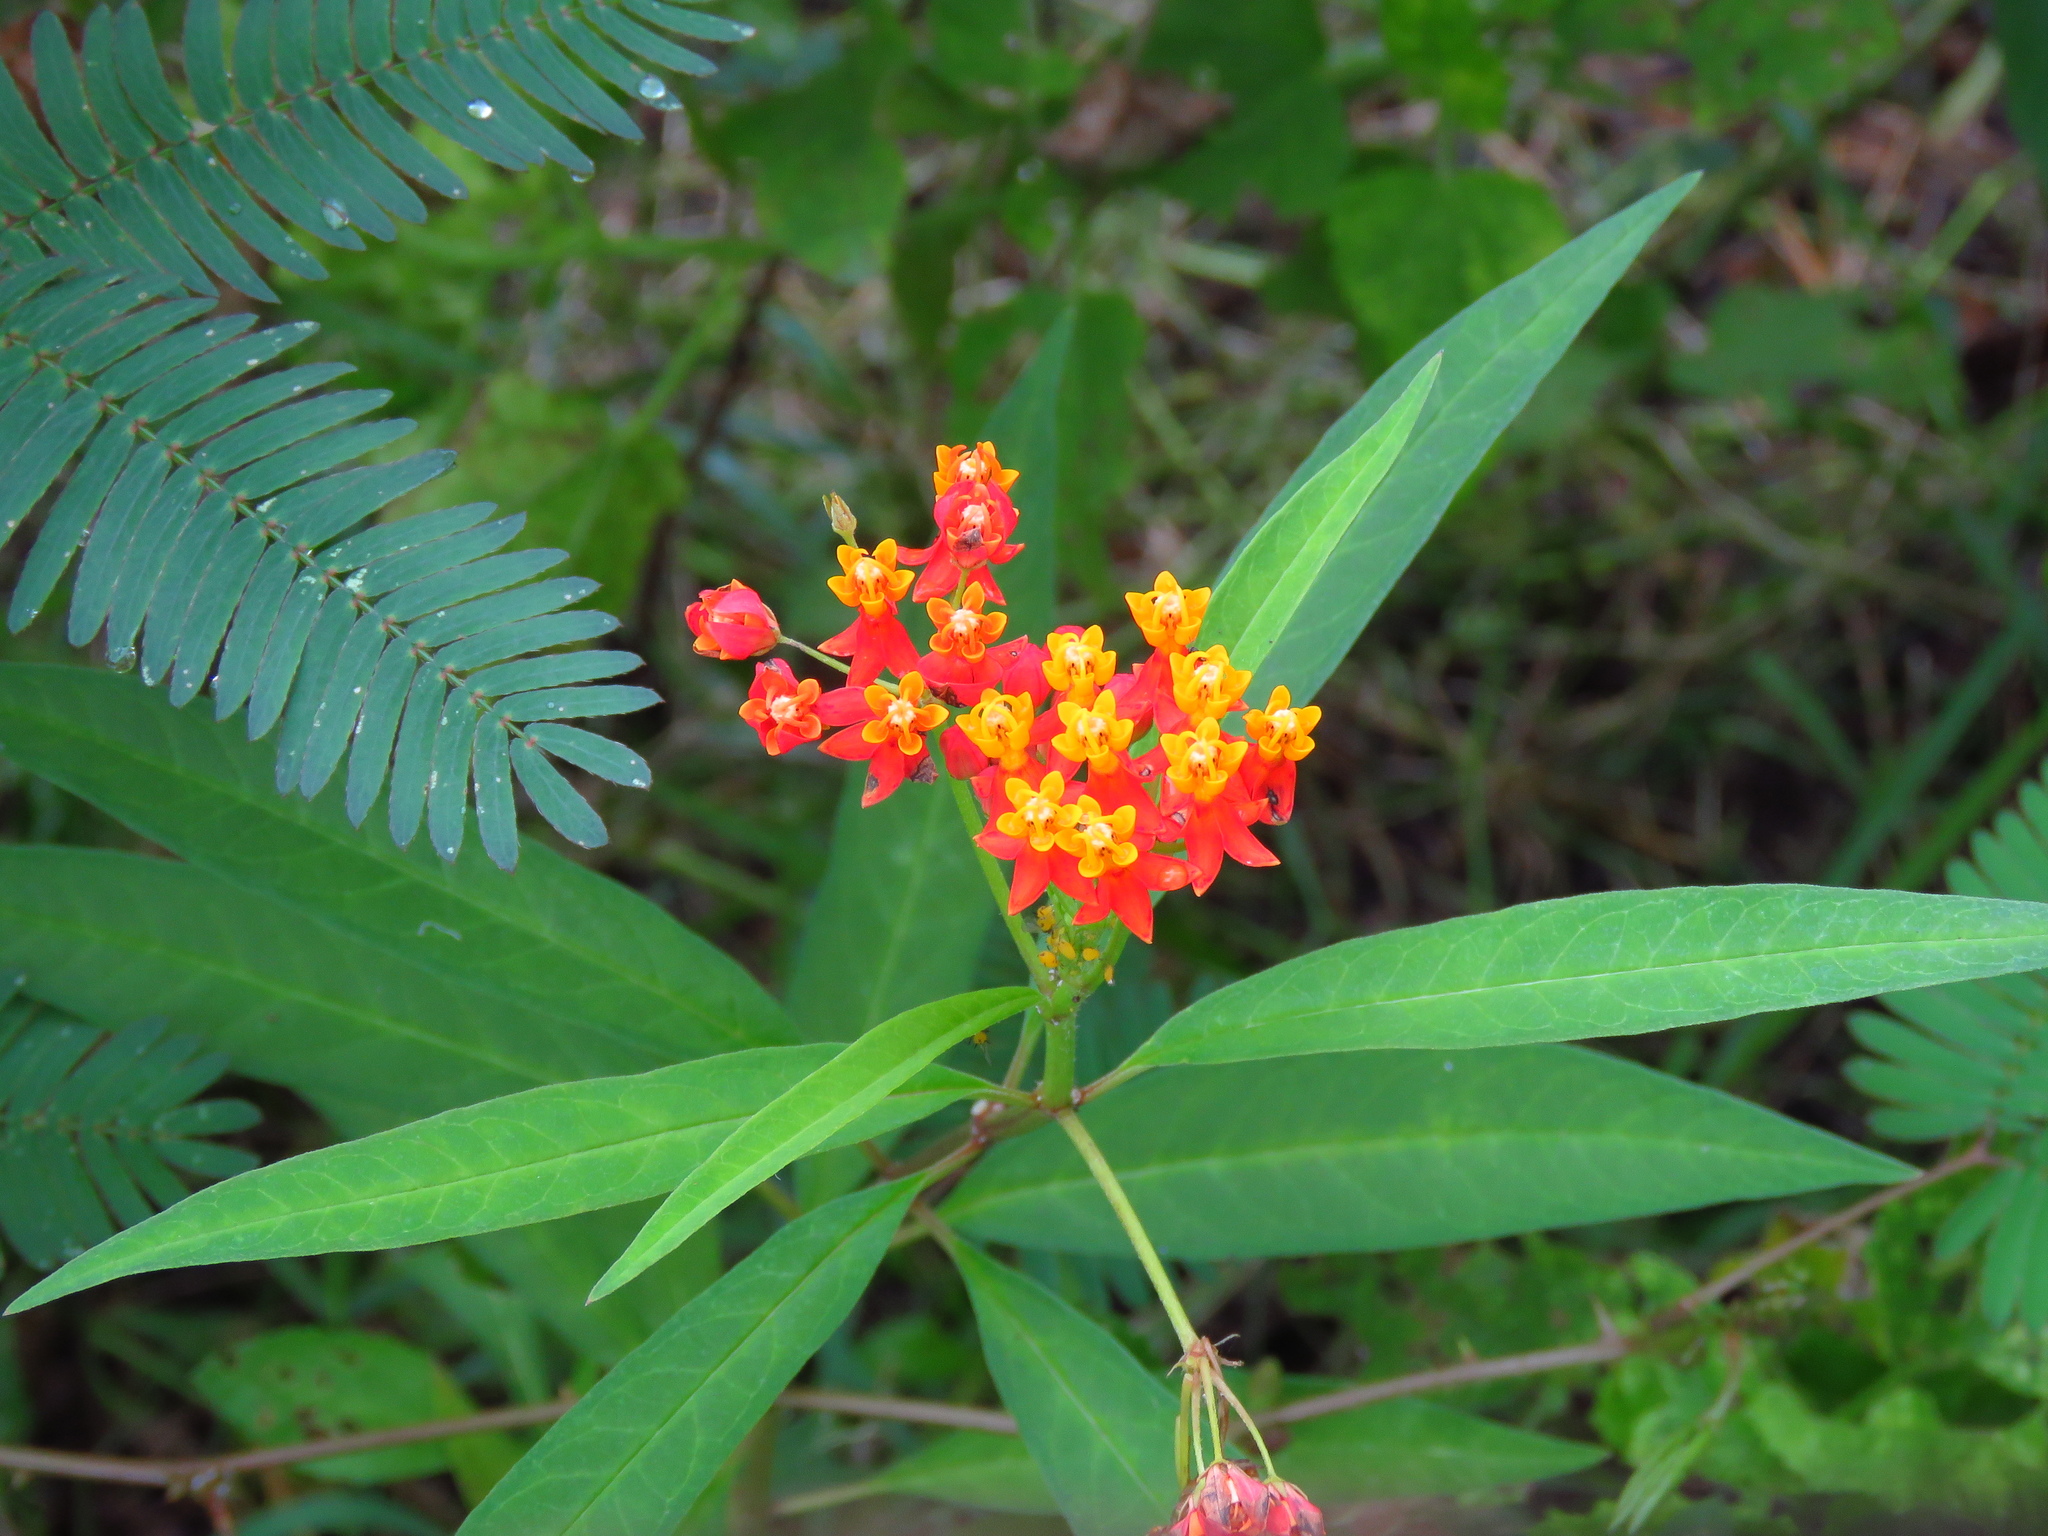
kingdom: Plantae
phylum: Tracheophyta
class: Magnoliopsida
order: Gentianales
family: Apocynaceae
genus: Asclepias
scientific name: Asclepias curassavica
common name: Bloodflower
